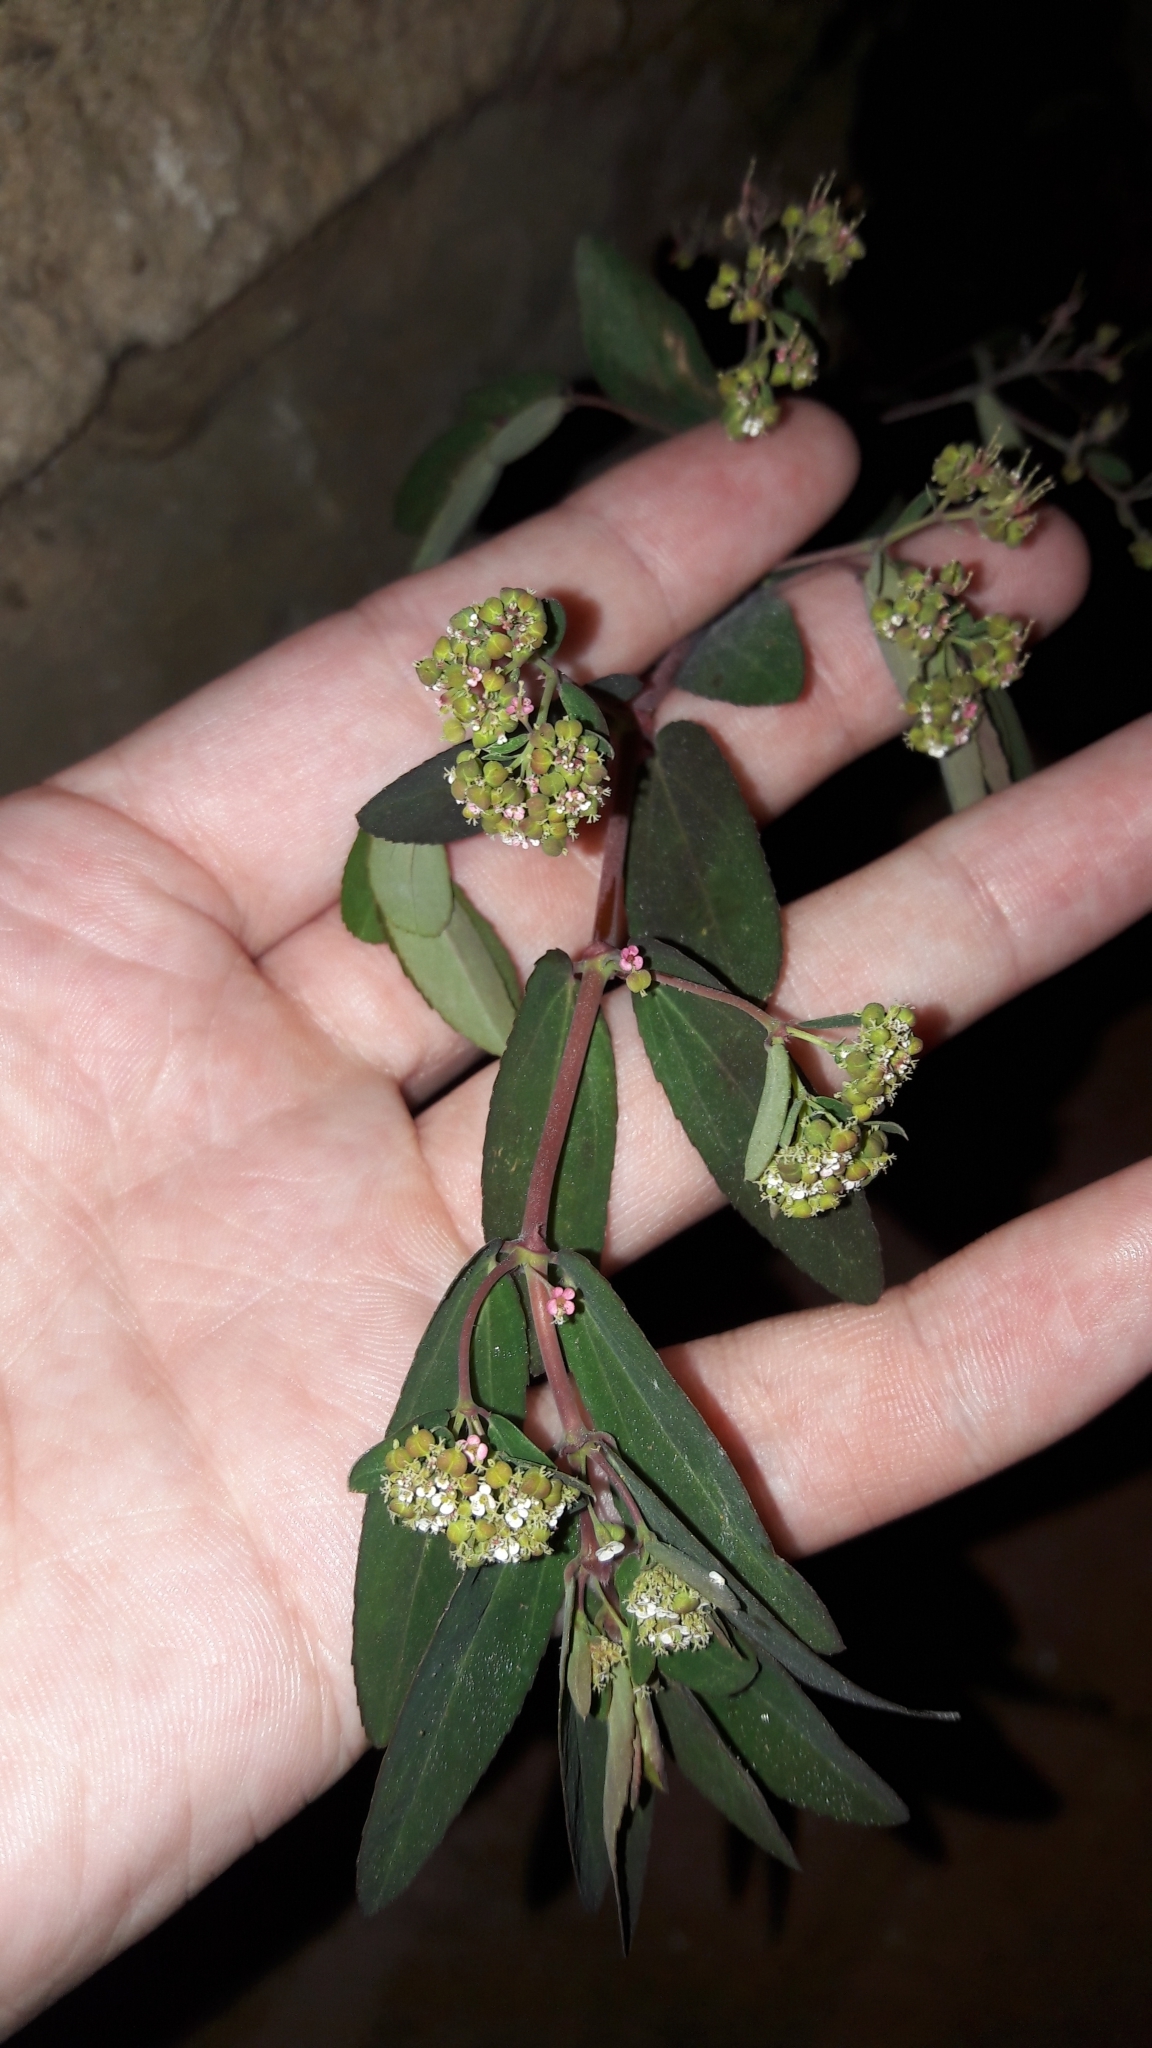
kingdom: Plantae
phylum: Tracheophyta
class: Magnoliopsida
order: Malpighiales
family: Euphorbiaceae
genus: Euphorbia
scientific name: Euphorbia hypericifolia
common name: Graceful sandmat
